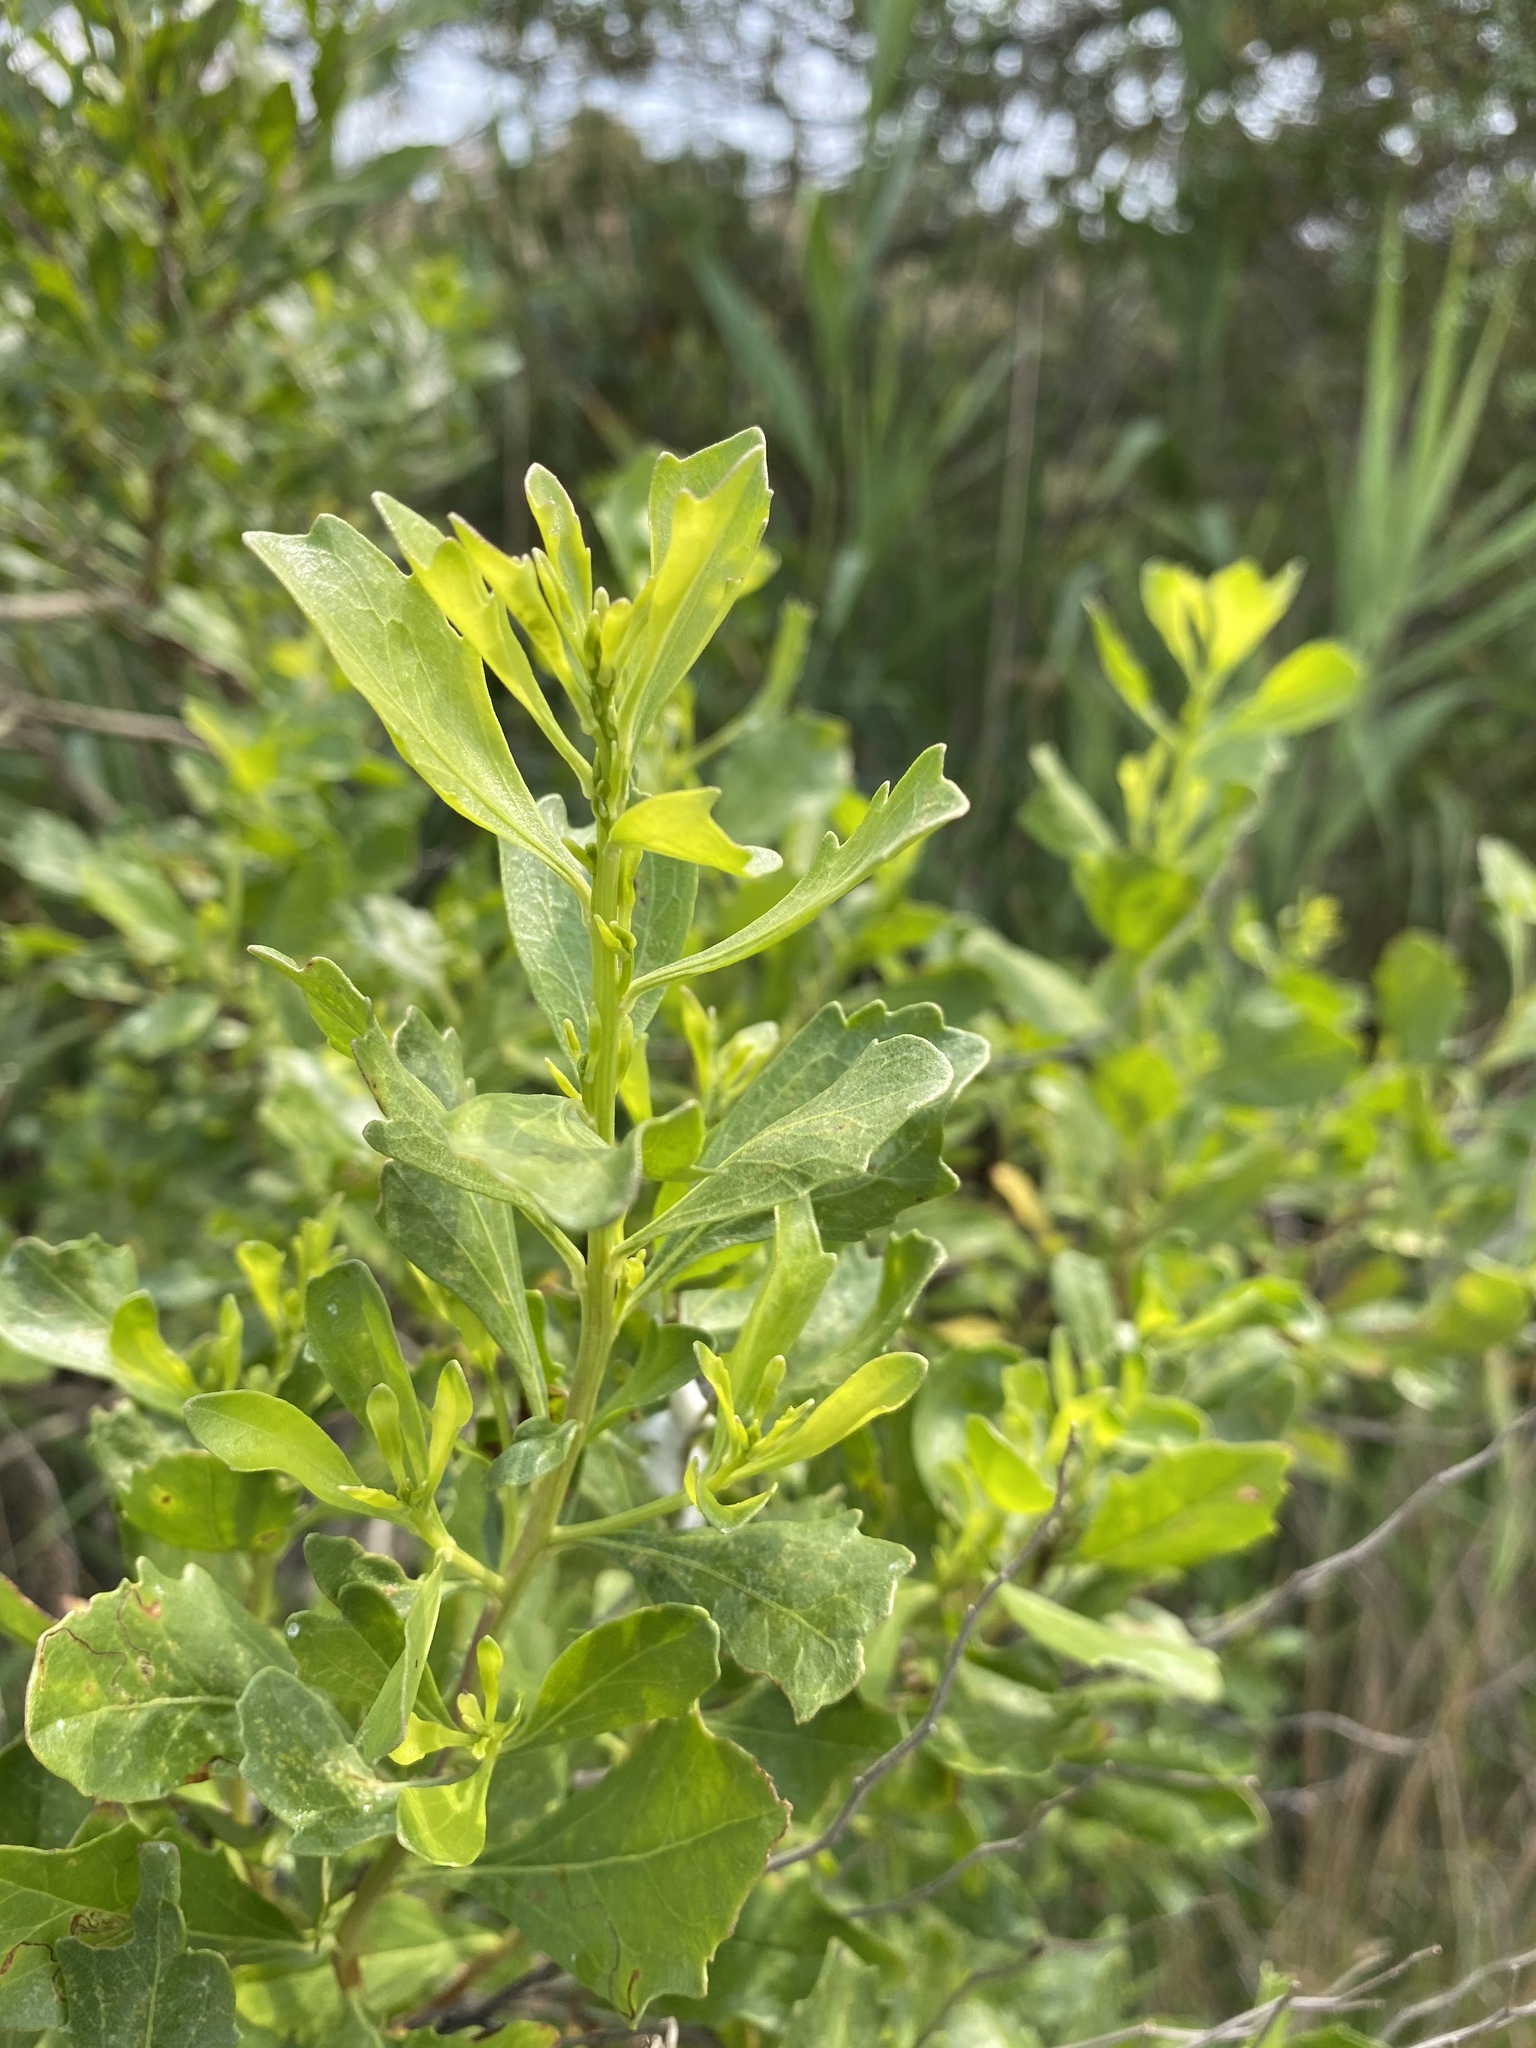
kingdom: Plantae
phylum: Tracheophyta
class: Magnoliopsida
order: Asterales
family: Asteraceae
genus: Baccharis
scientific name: Baccharis halimifolia
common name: Eastern baccharis
